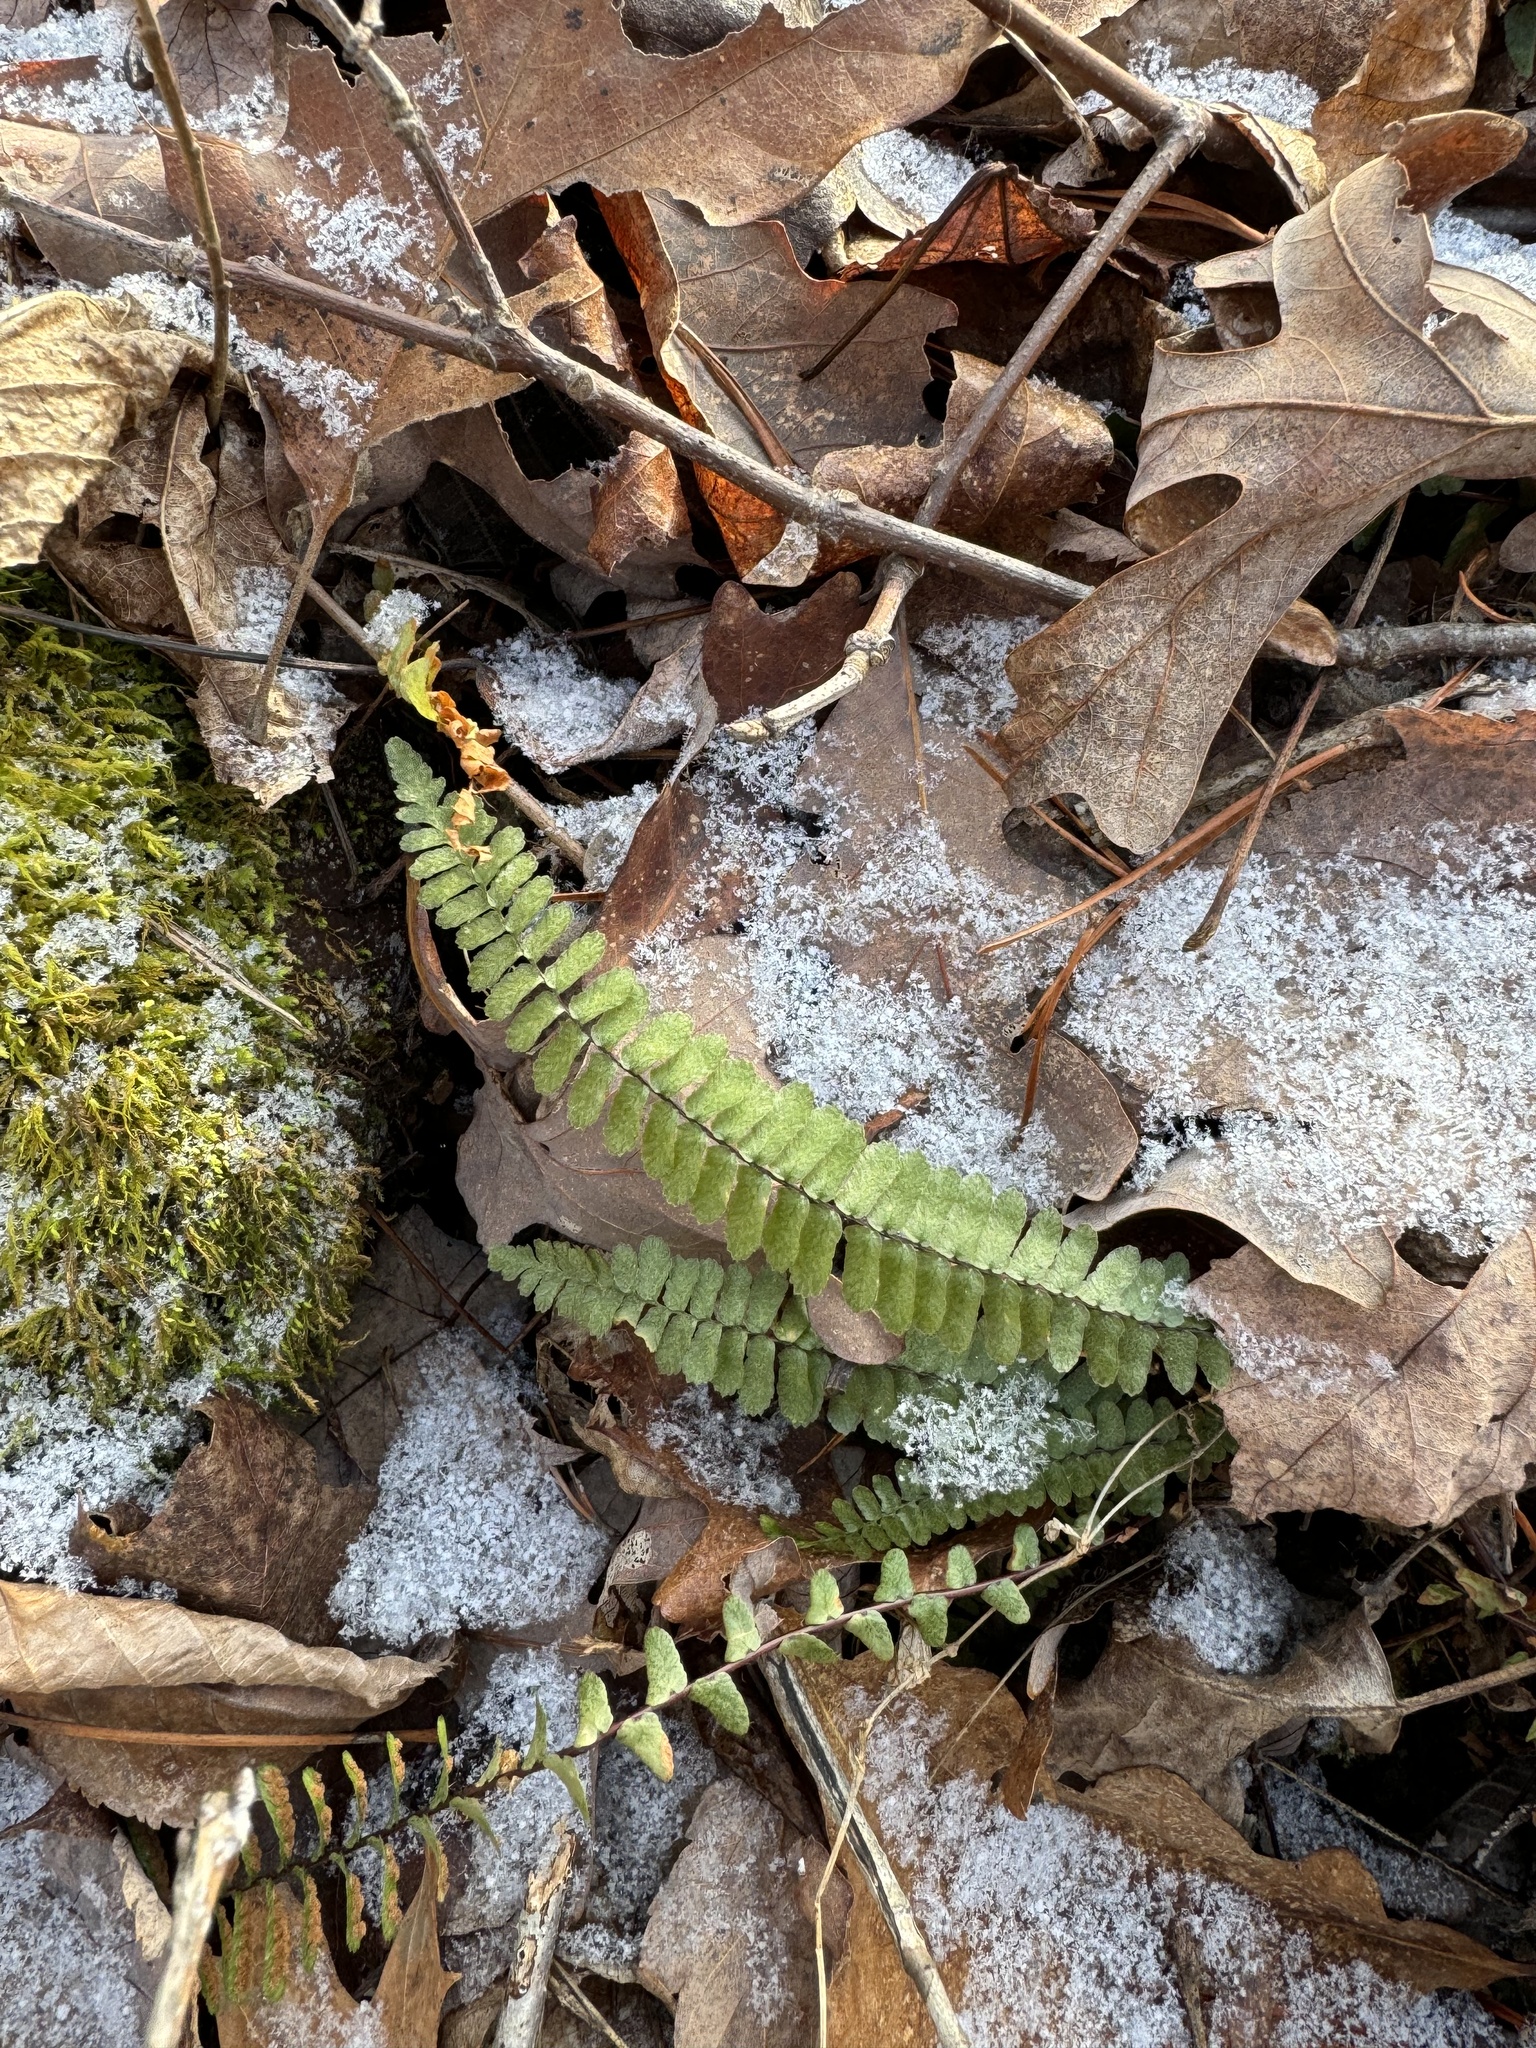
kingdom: Plantae
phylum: Tracheophyta
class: Polypodiopsida
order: Polypodiales
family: Aspleniaceae
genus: Asplenium
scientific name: Asplenium platyneuron
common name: Ebony spleenwort
